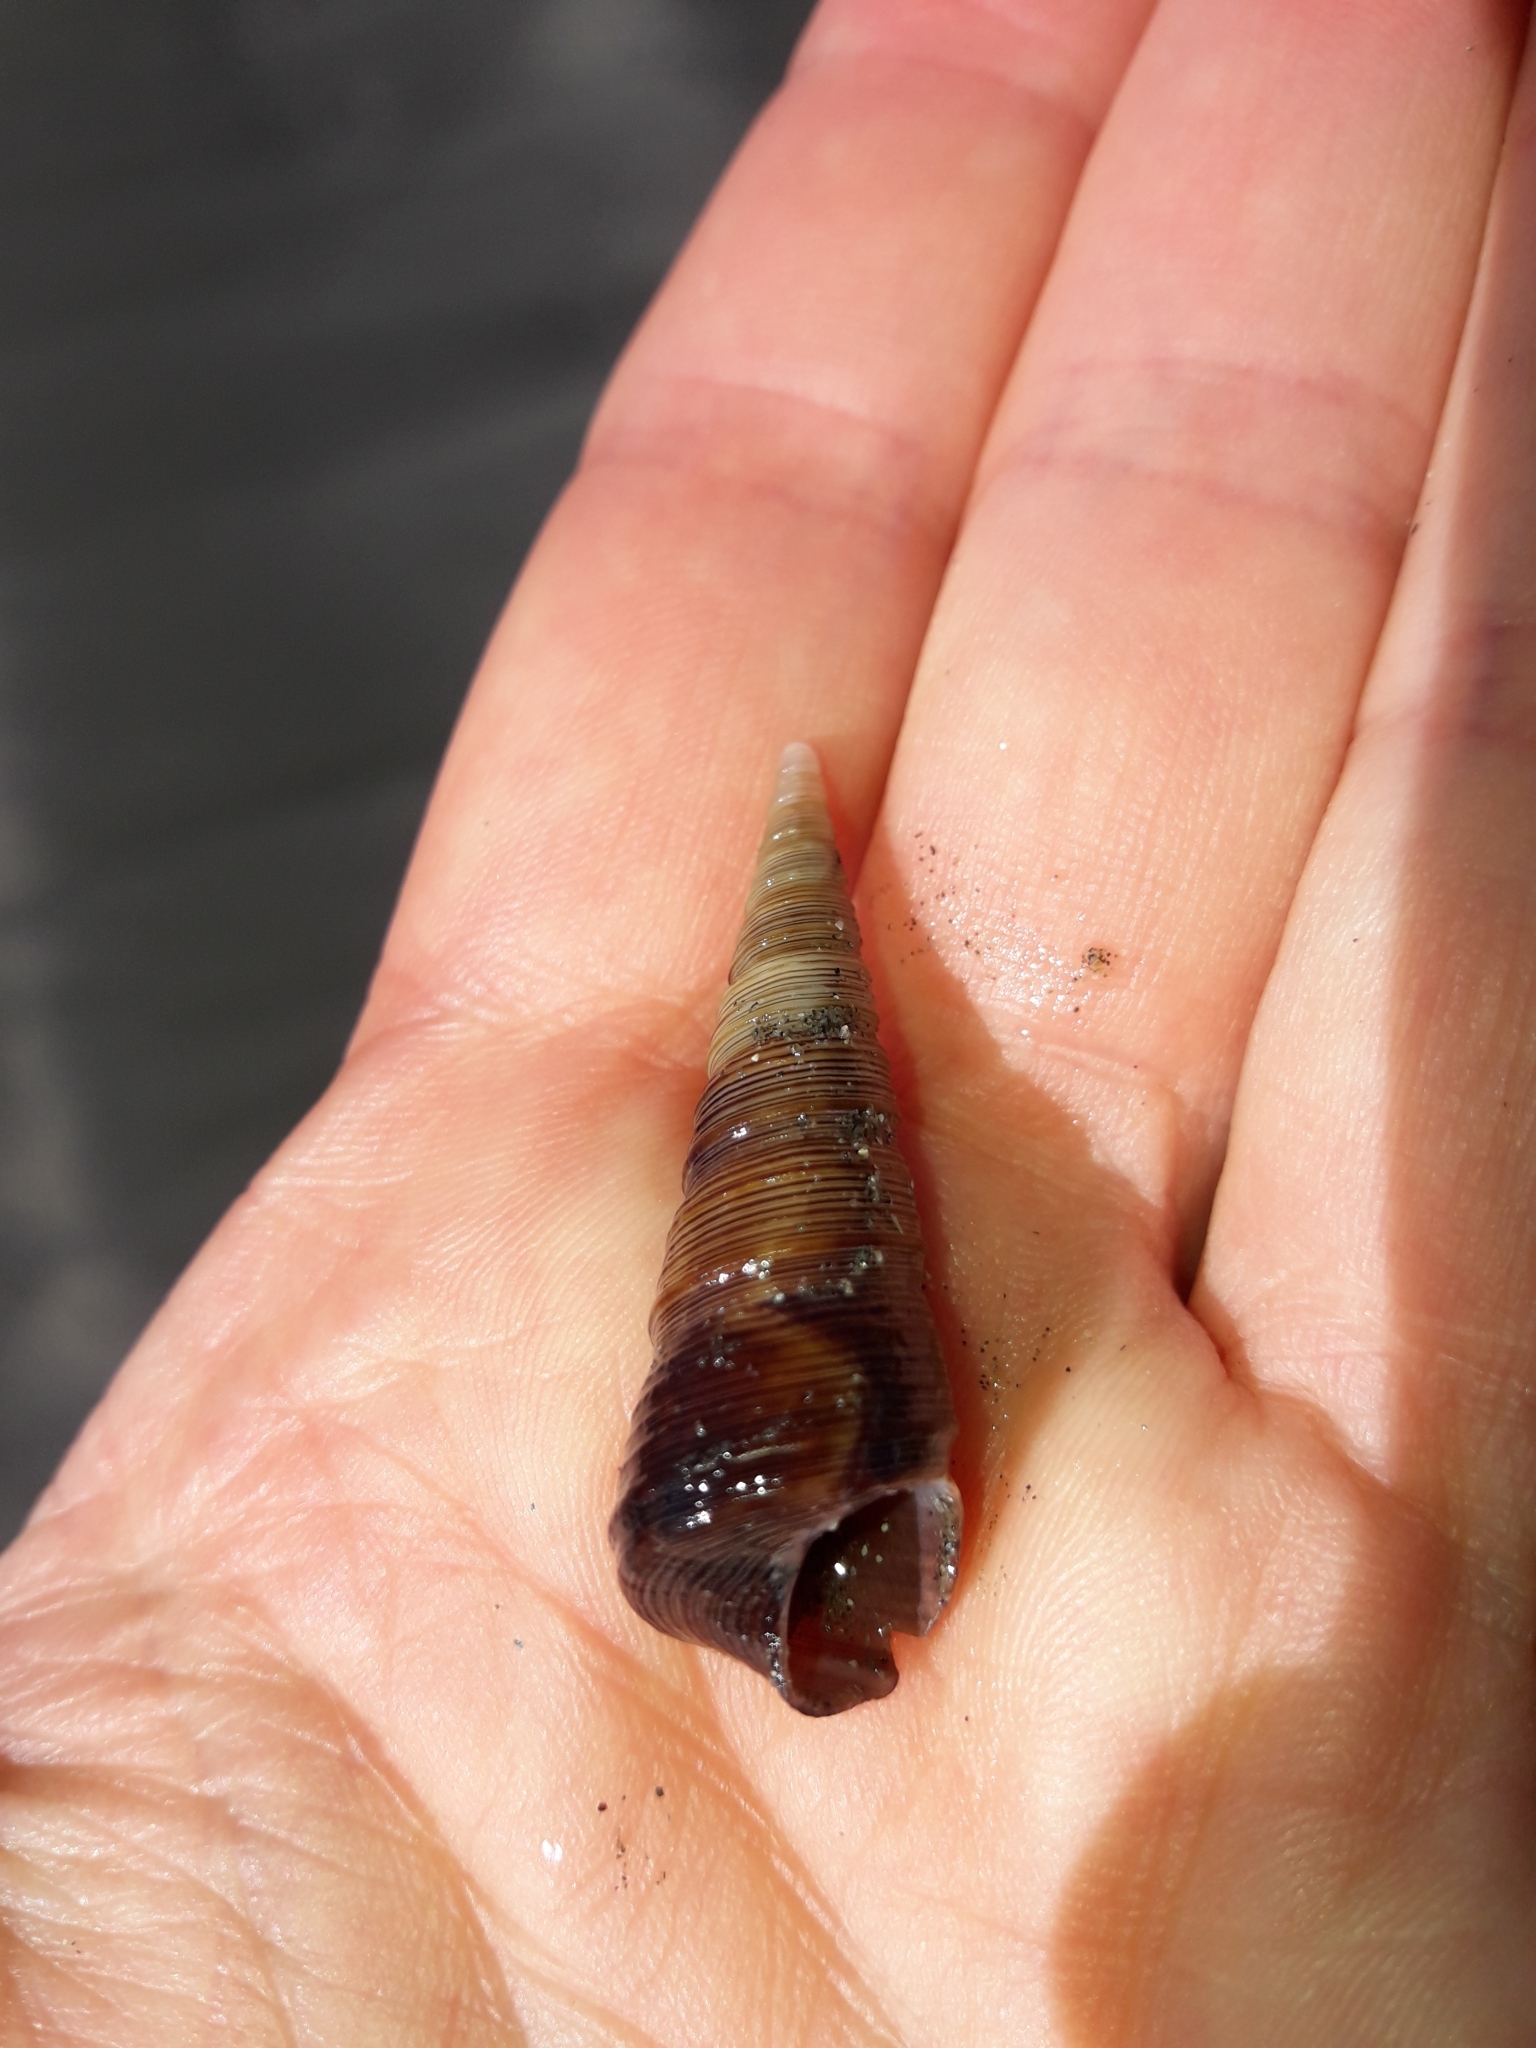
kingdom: Animalia
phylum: Mollusca
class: Gastropoda
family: Turritellidae
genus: Maoricolpus
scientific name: Maoricolpus roseus
